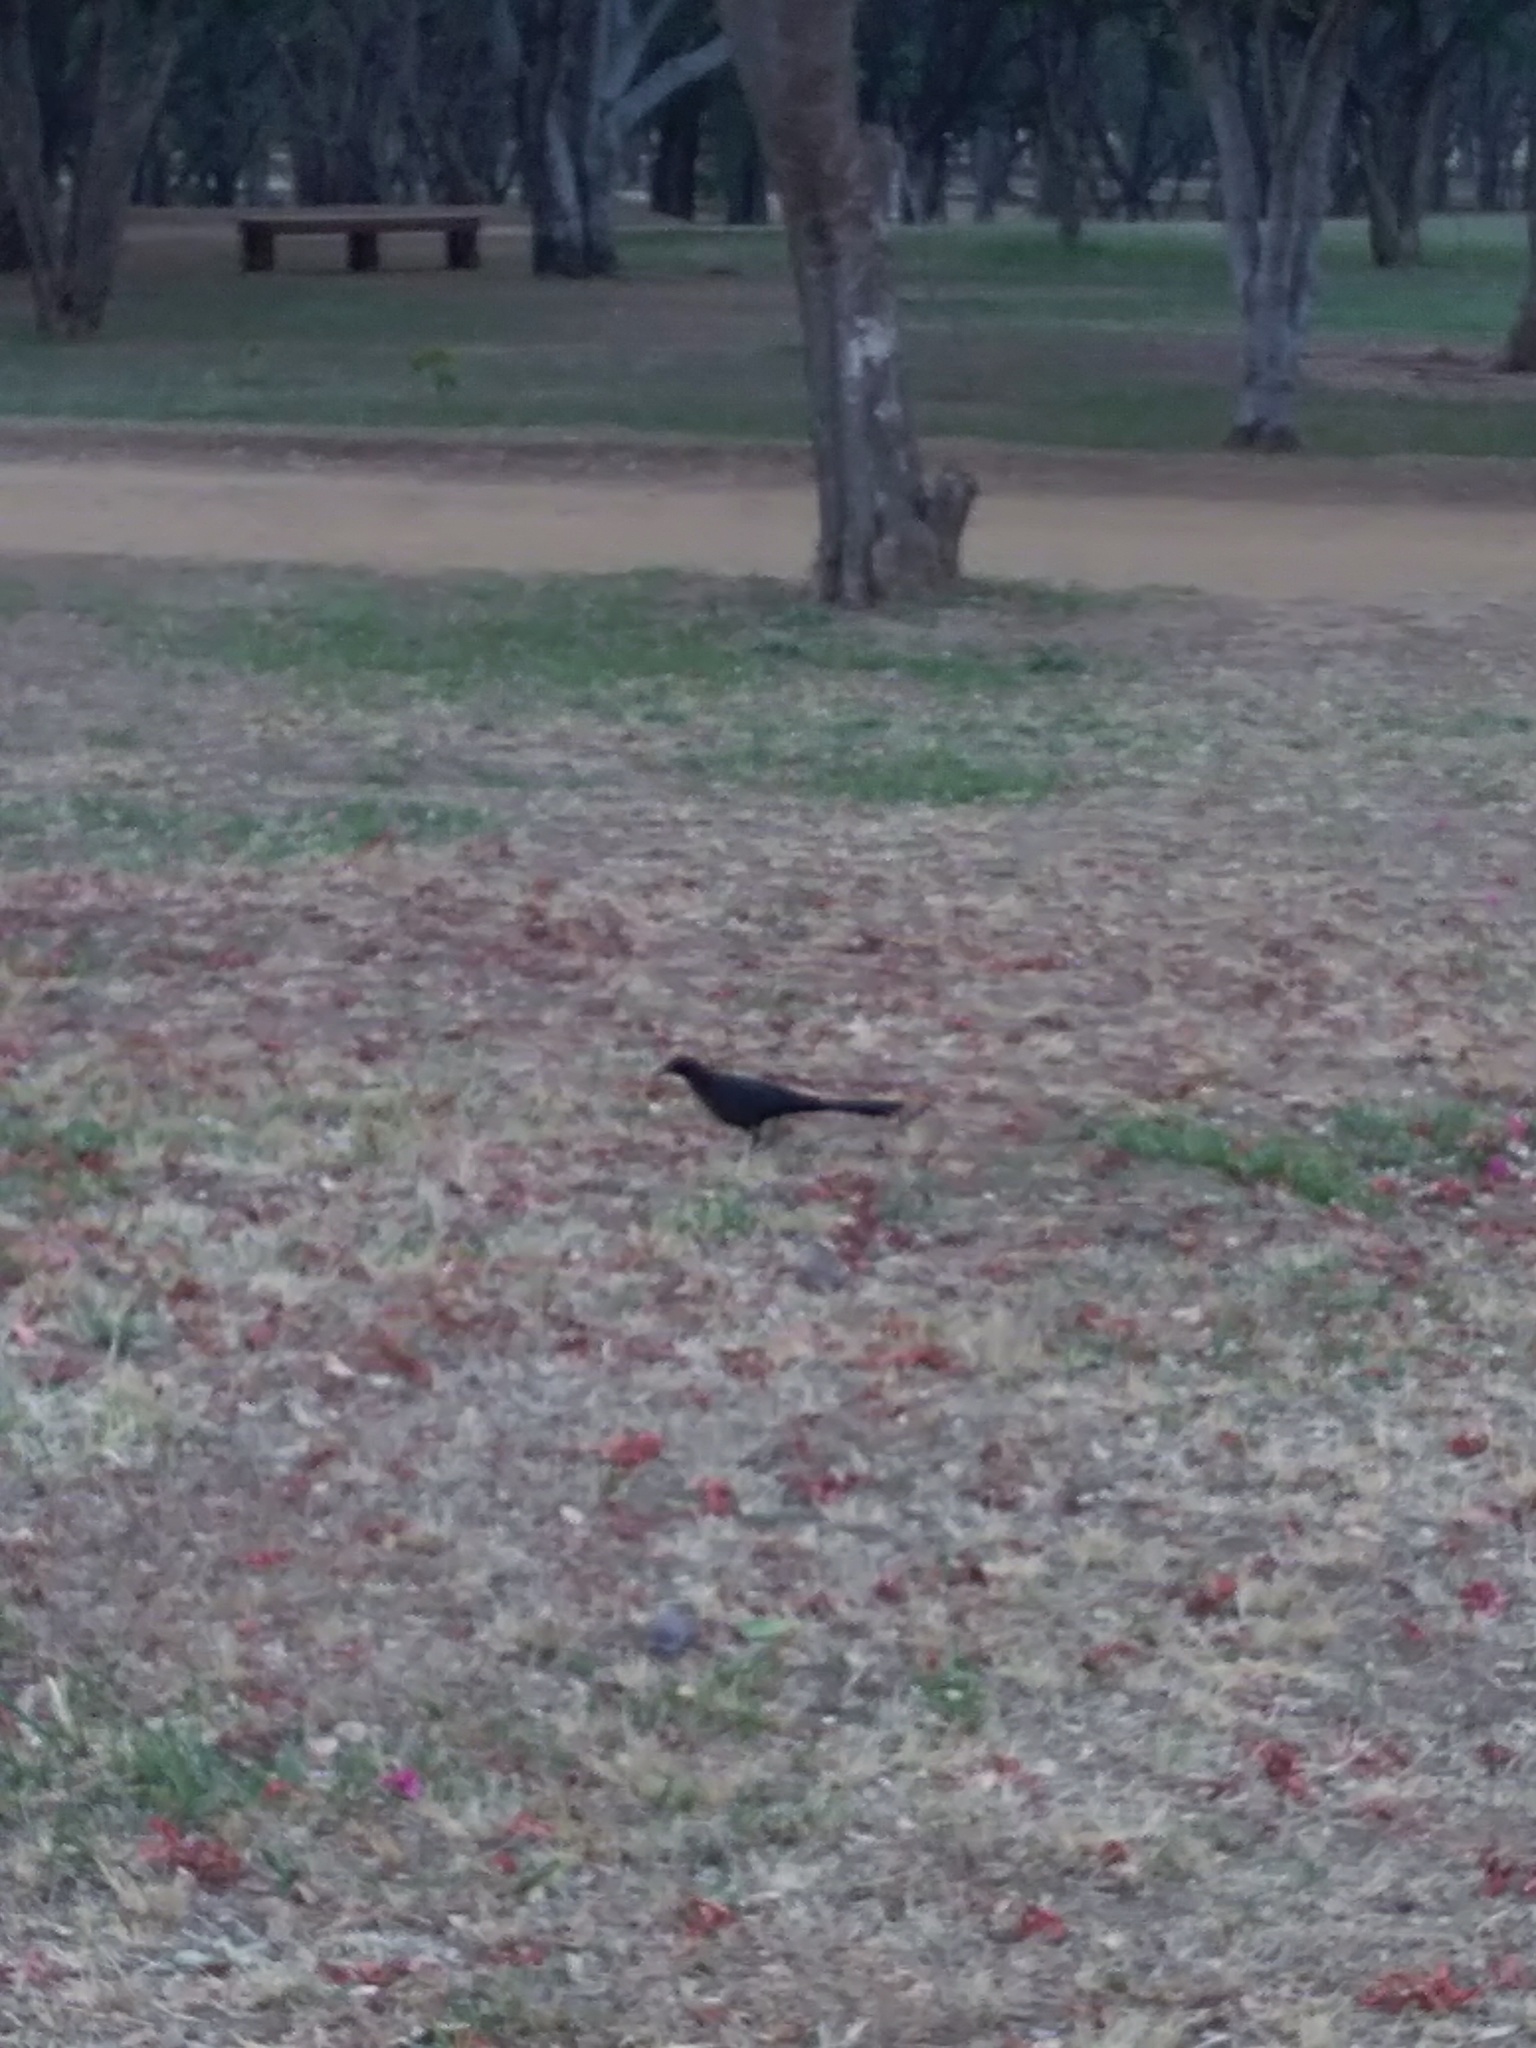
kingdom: Animalia
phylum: Chordata
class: Aves
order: Passeriformes
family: Icteridae
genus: Quiscalus
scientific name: Quiscalus mexicanus
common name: Great-tailed grackle
